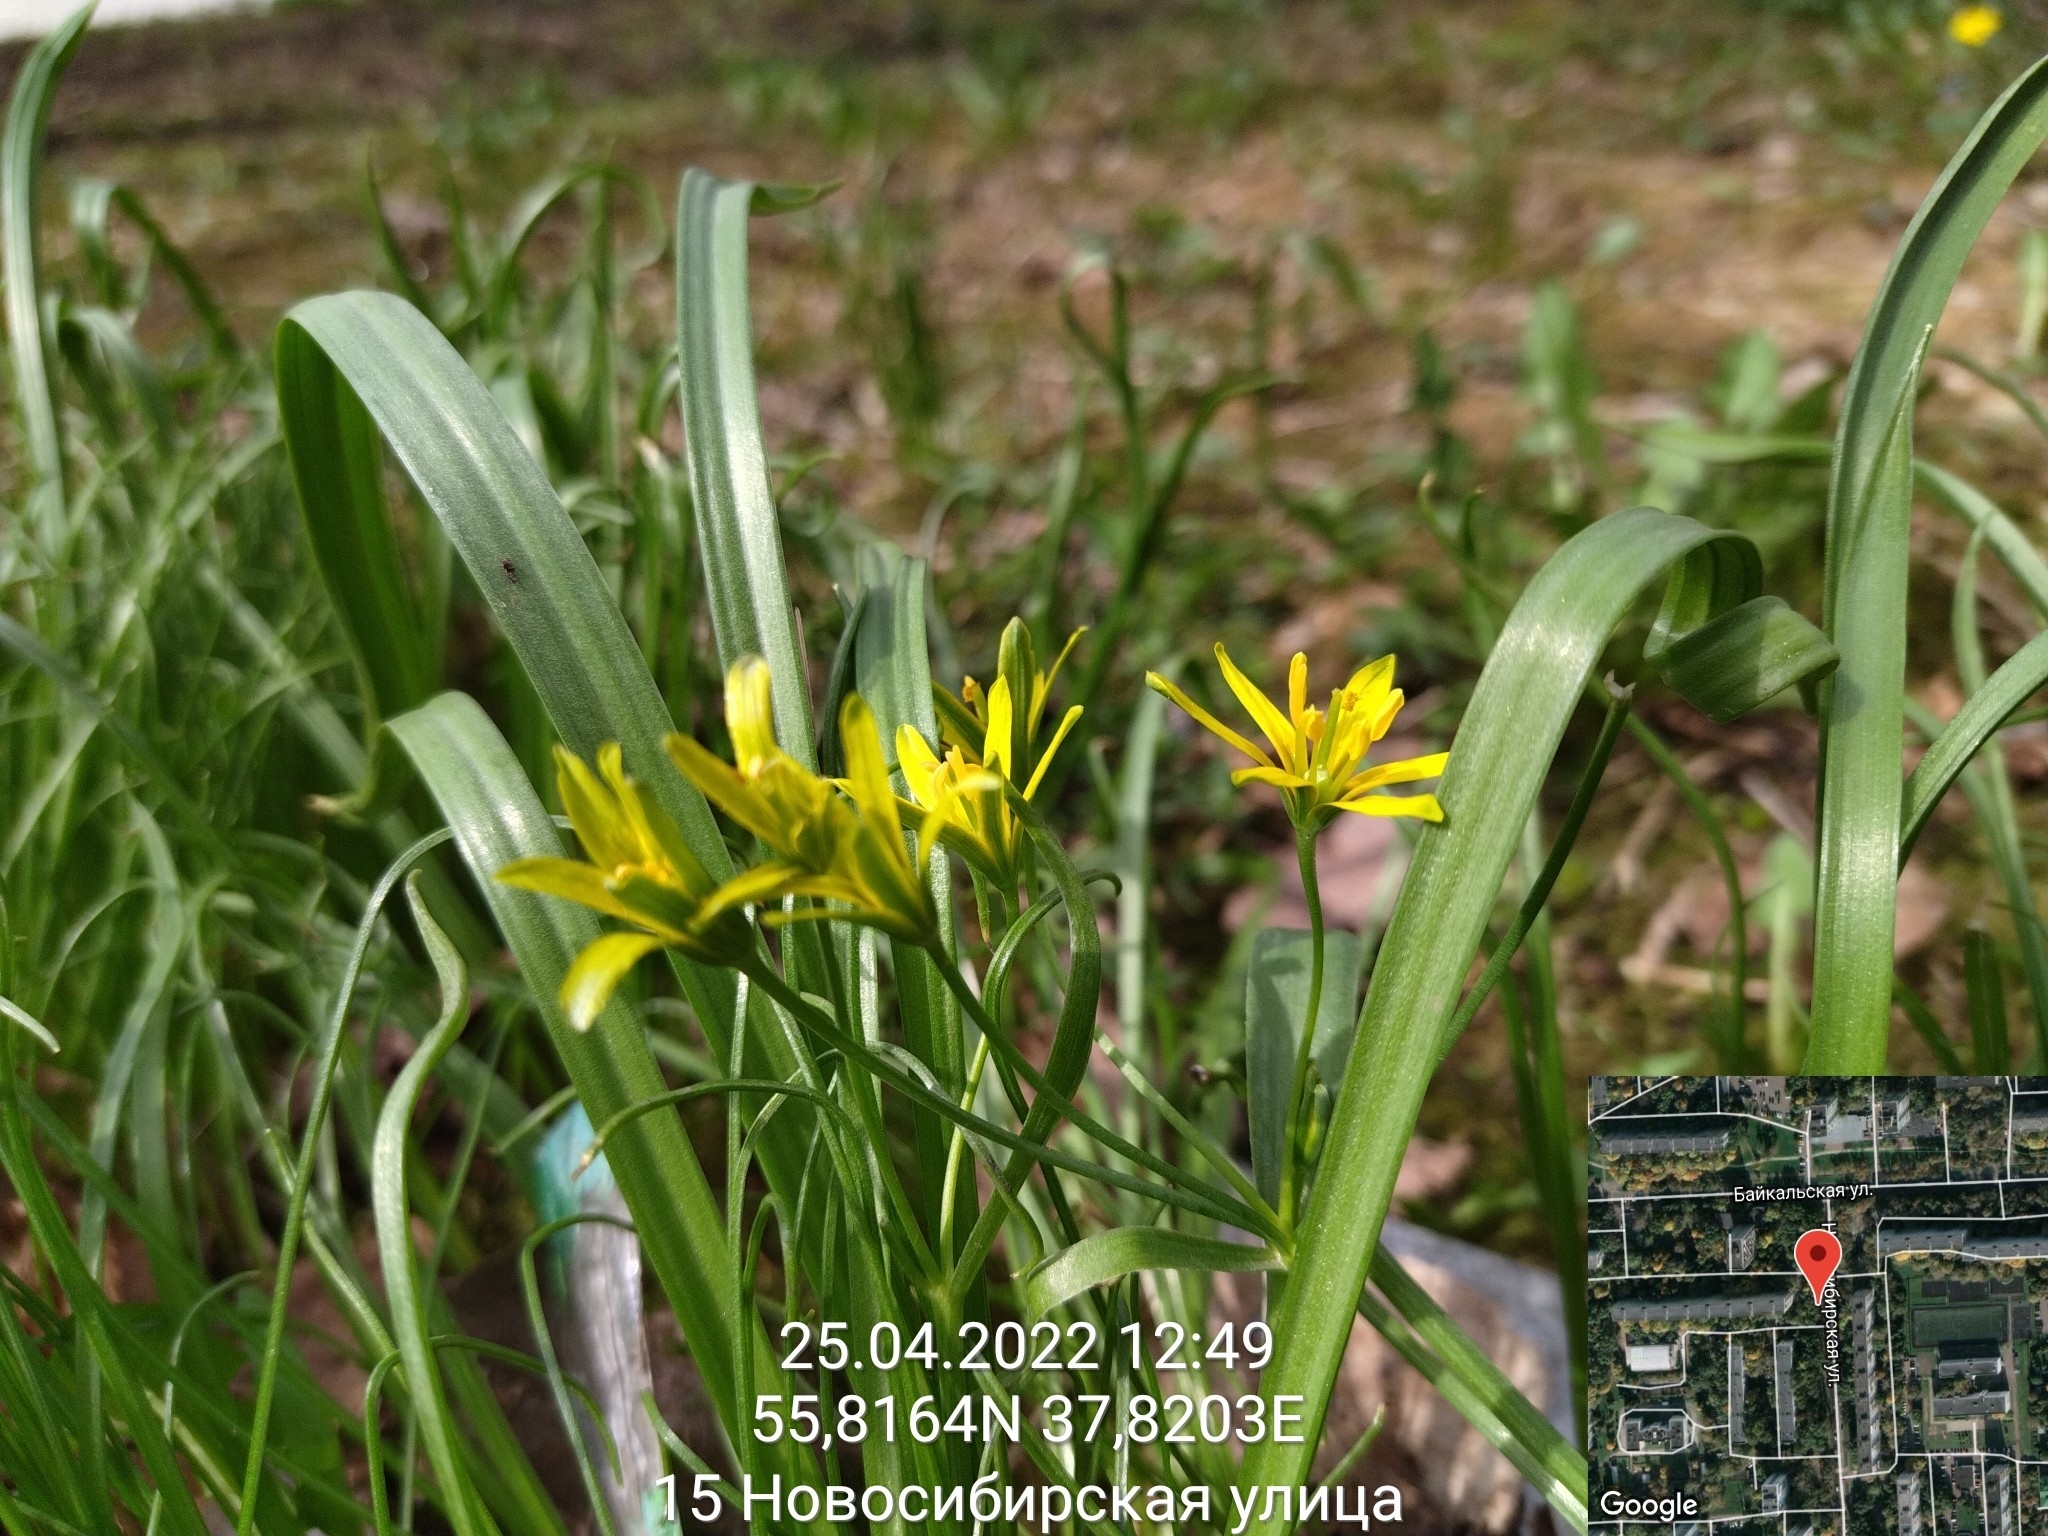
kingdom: Plantae
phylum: Tracheophyta
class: Liliopsida
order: Liliales
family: Liliaceae
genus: Gagea
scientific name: Gagea lutea
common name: Yellow star-of-bethlehem
